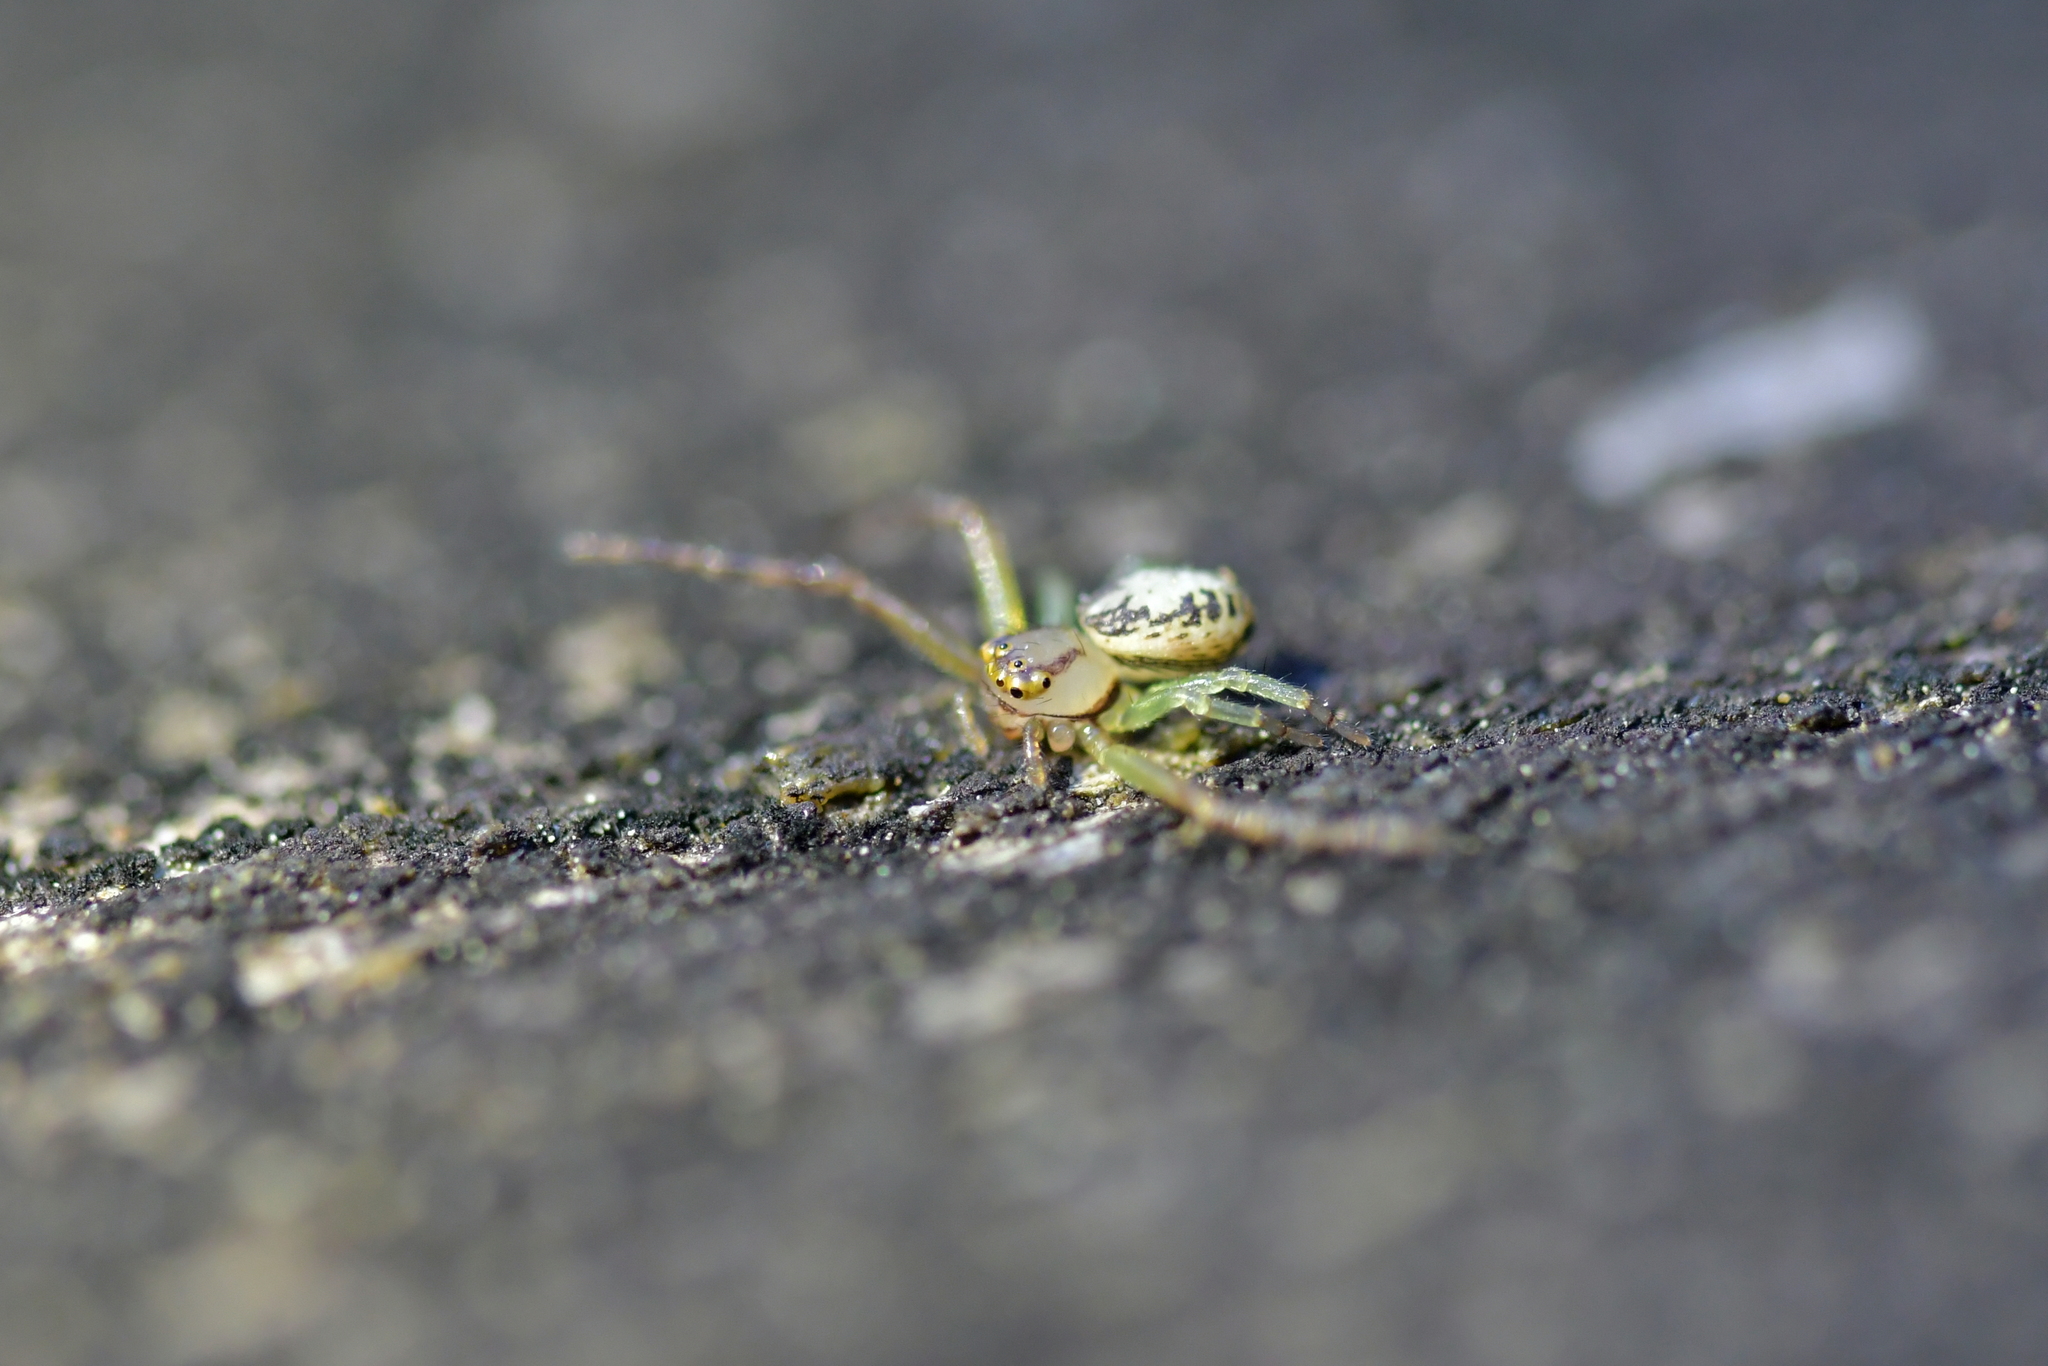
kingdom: Animalia
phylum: Arthropoda
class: Arachnida
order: Araneae
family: Thomisidae
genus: Diaea
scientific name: Diaea ambara
